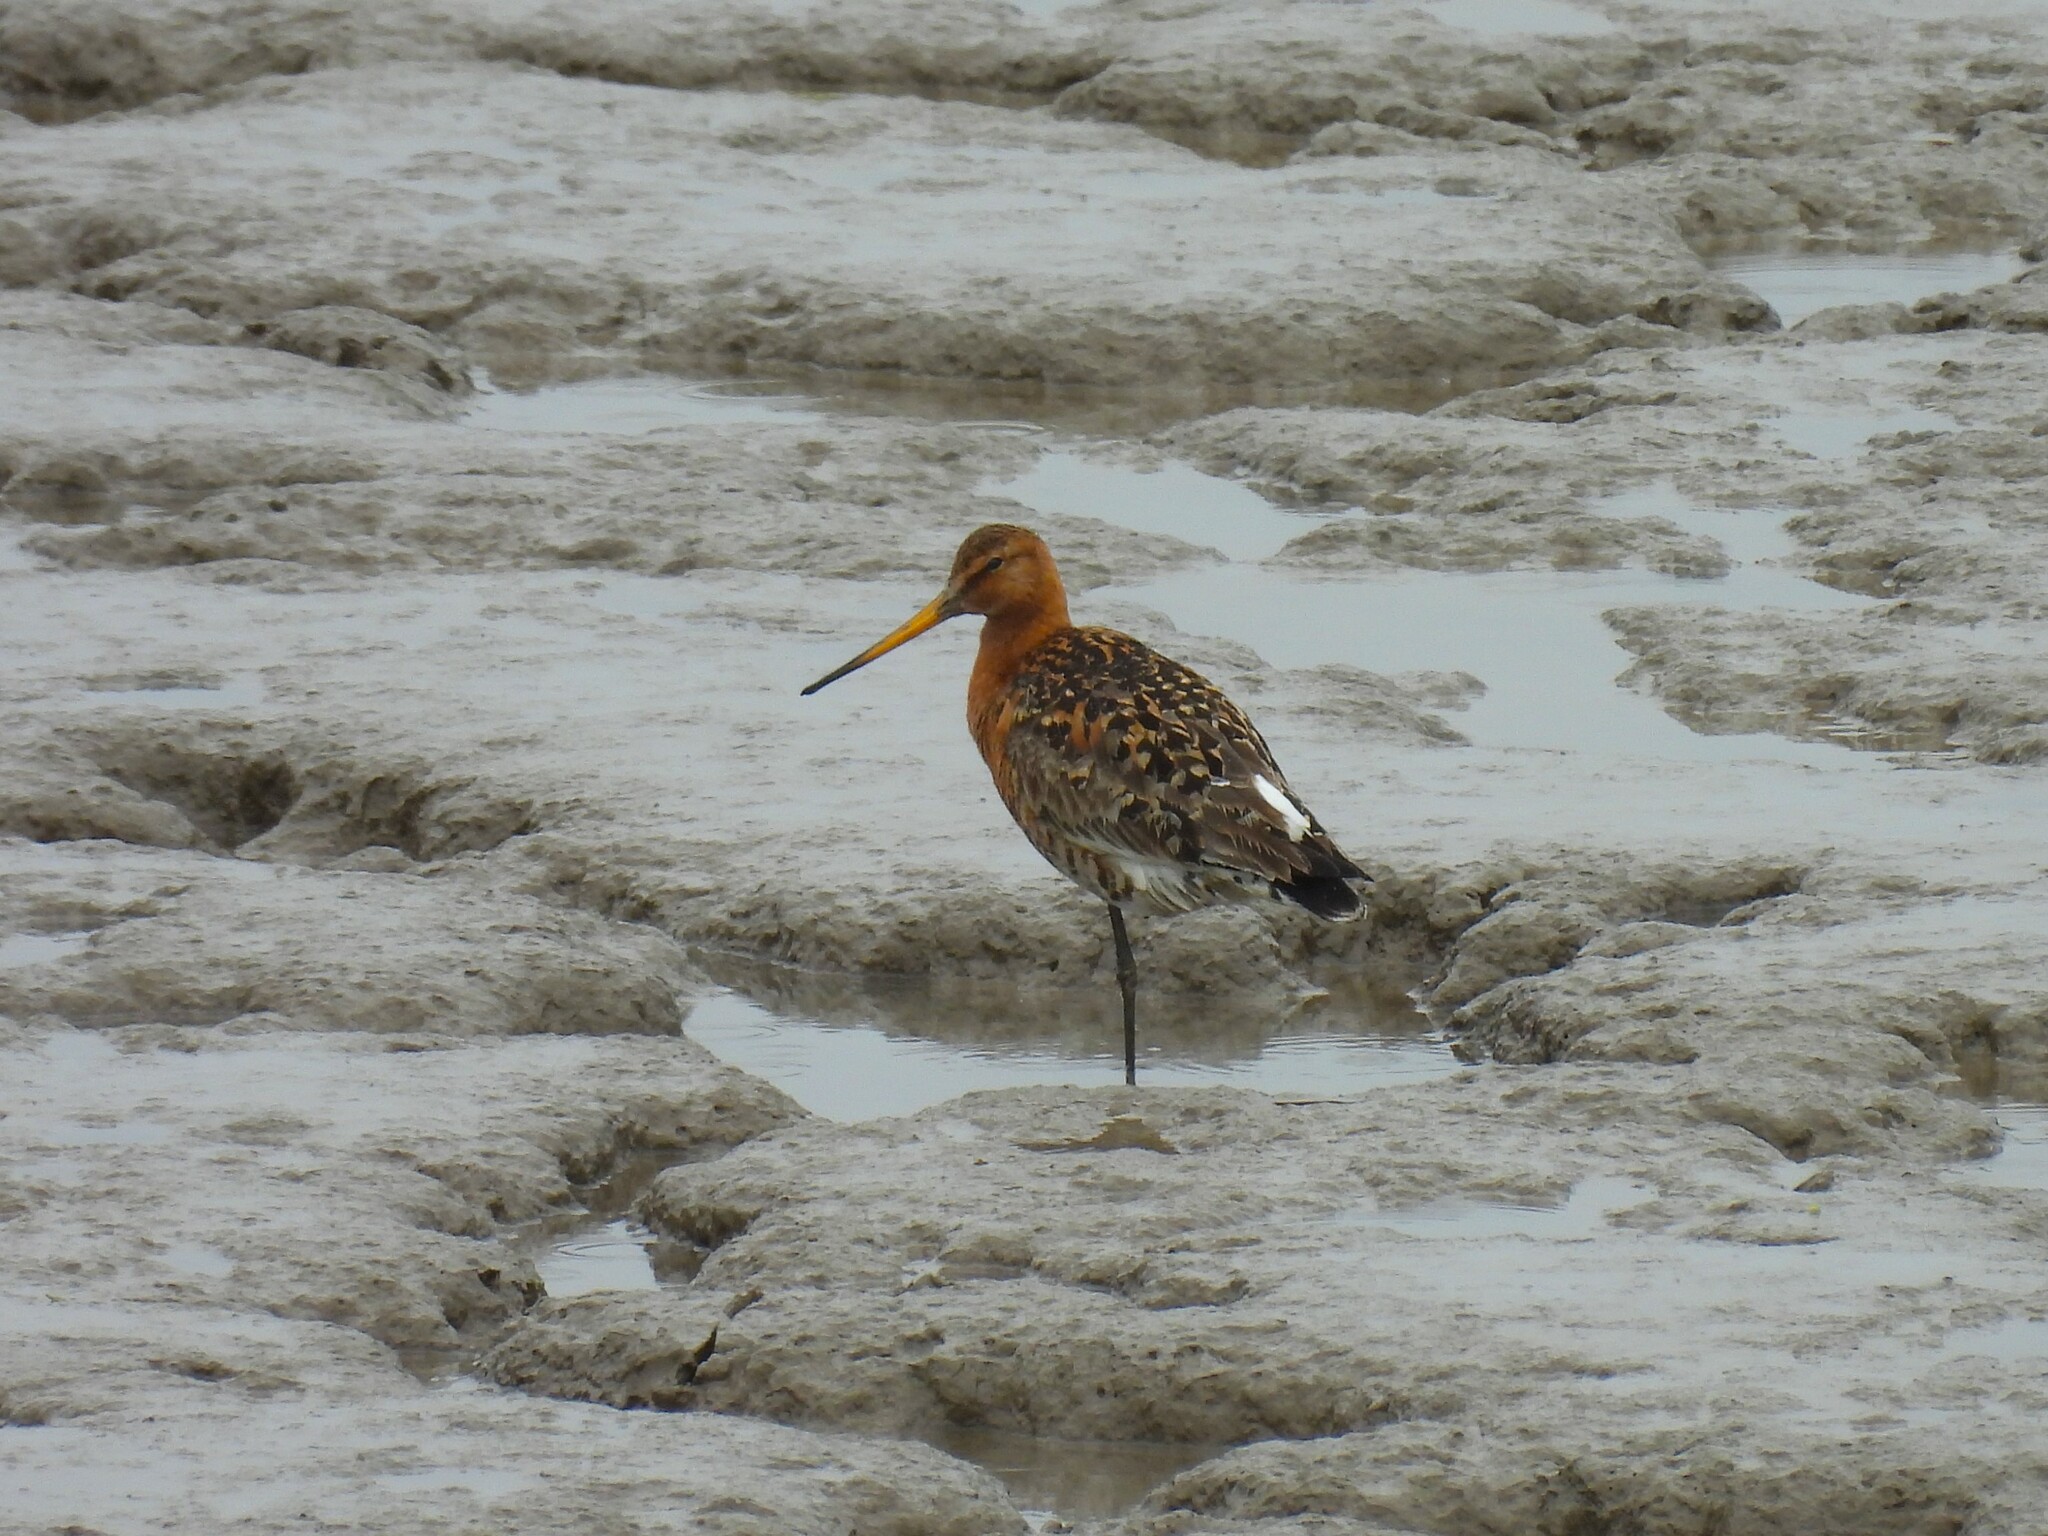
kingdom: Animalia
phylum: Chordata
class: Aves
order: Charadriiformes
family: Scolopacidae
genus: Limosa
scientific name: Limosa limosa
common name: Black-tailed godwit
